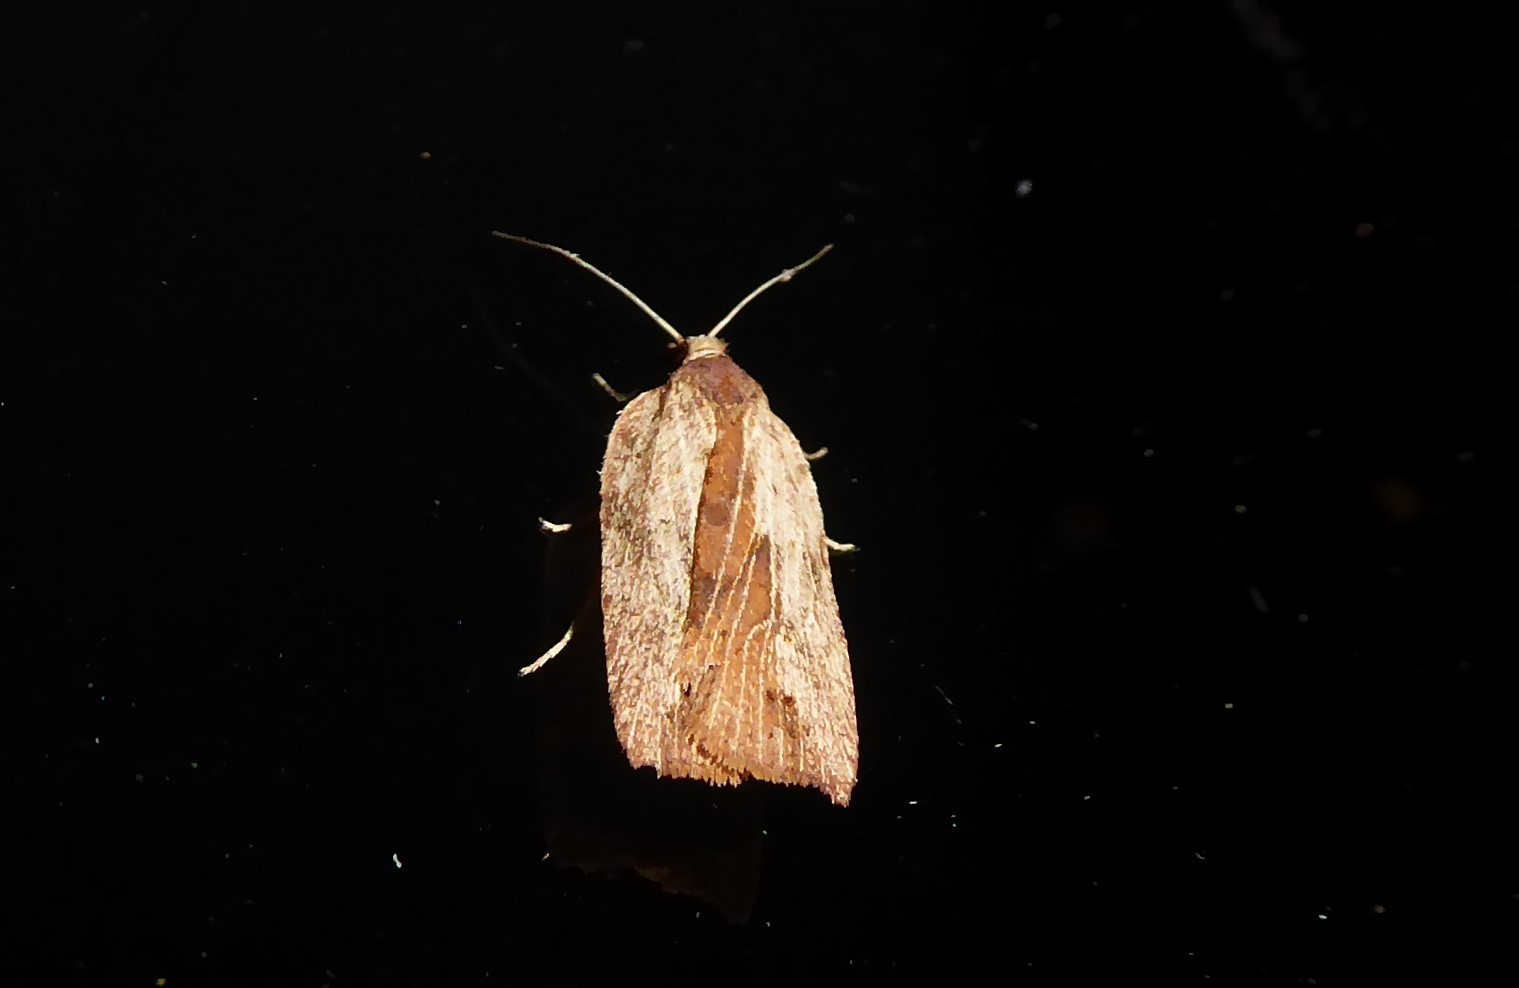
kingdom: Animalia
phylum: Arthropoda
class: Insecta
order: Lepidoptera
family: Tortricidae
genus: Planotortrix
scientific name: Planotortrix notophaea
